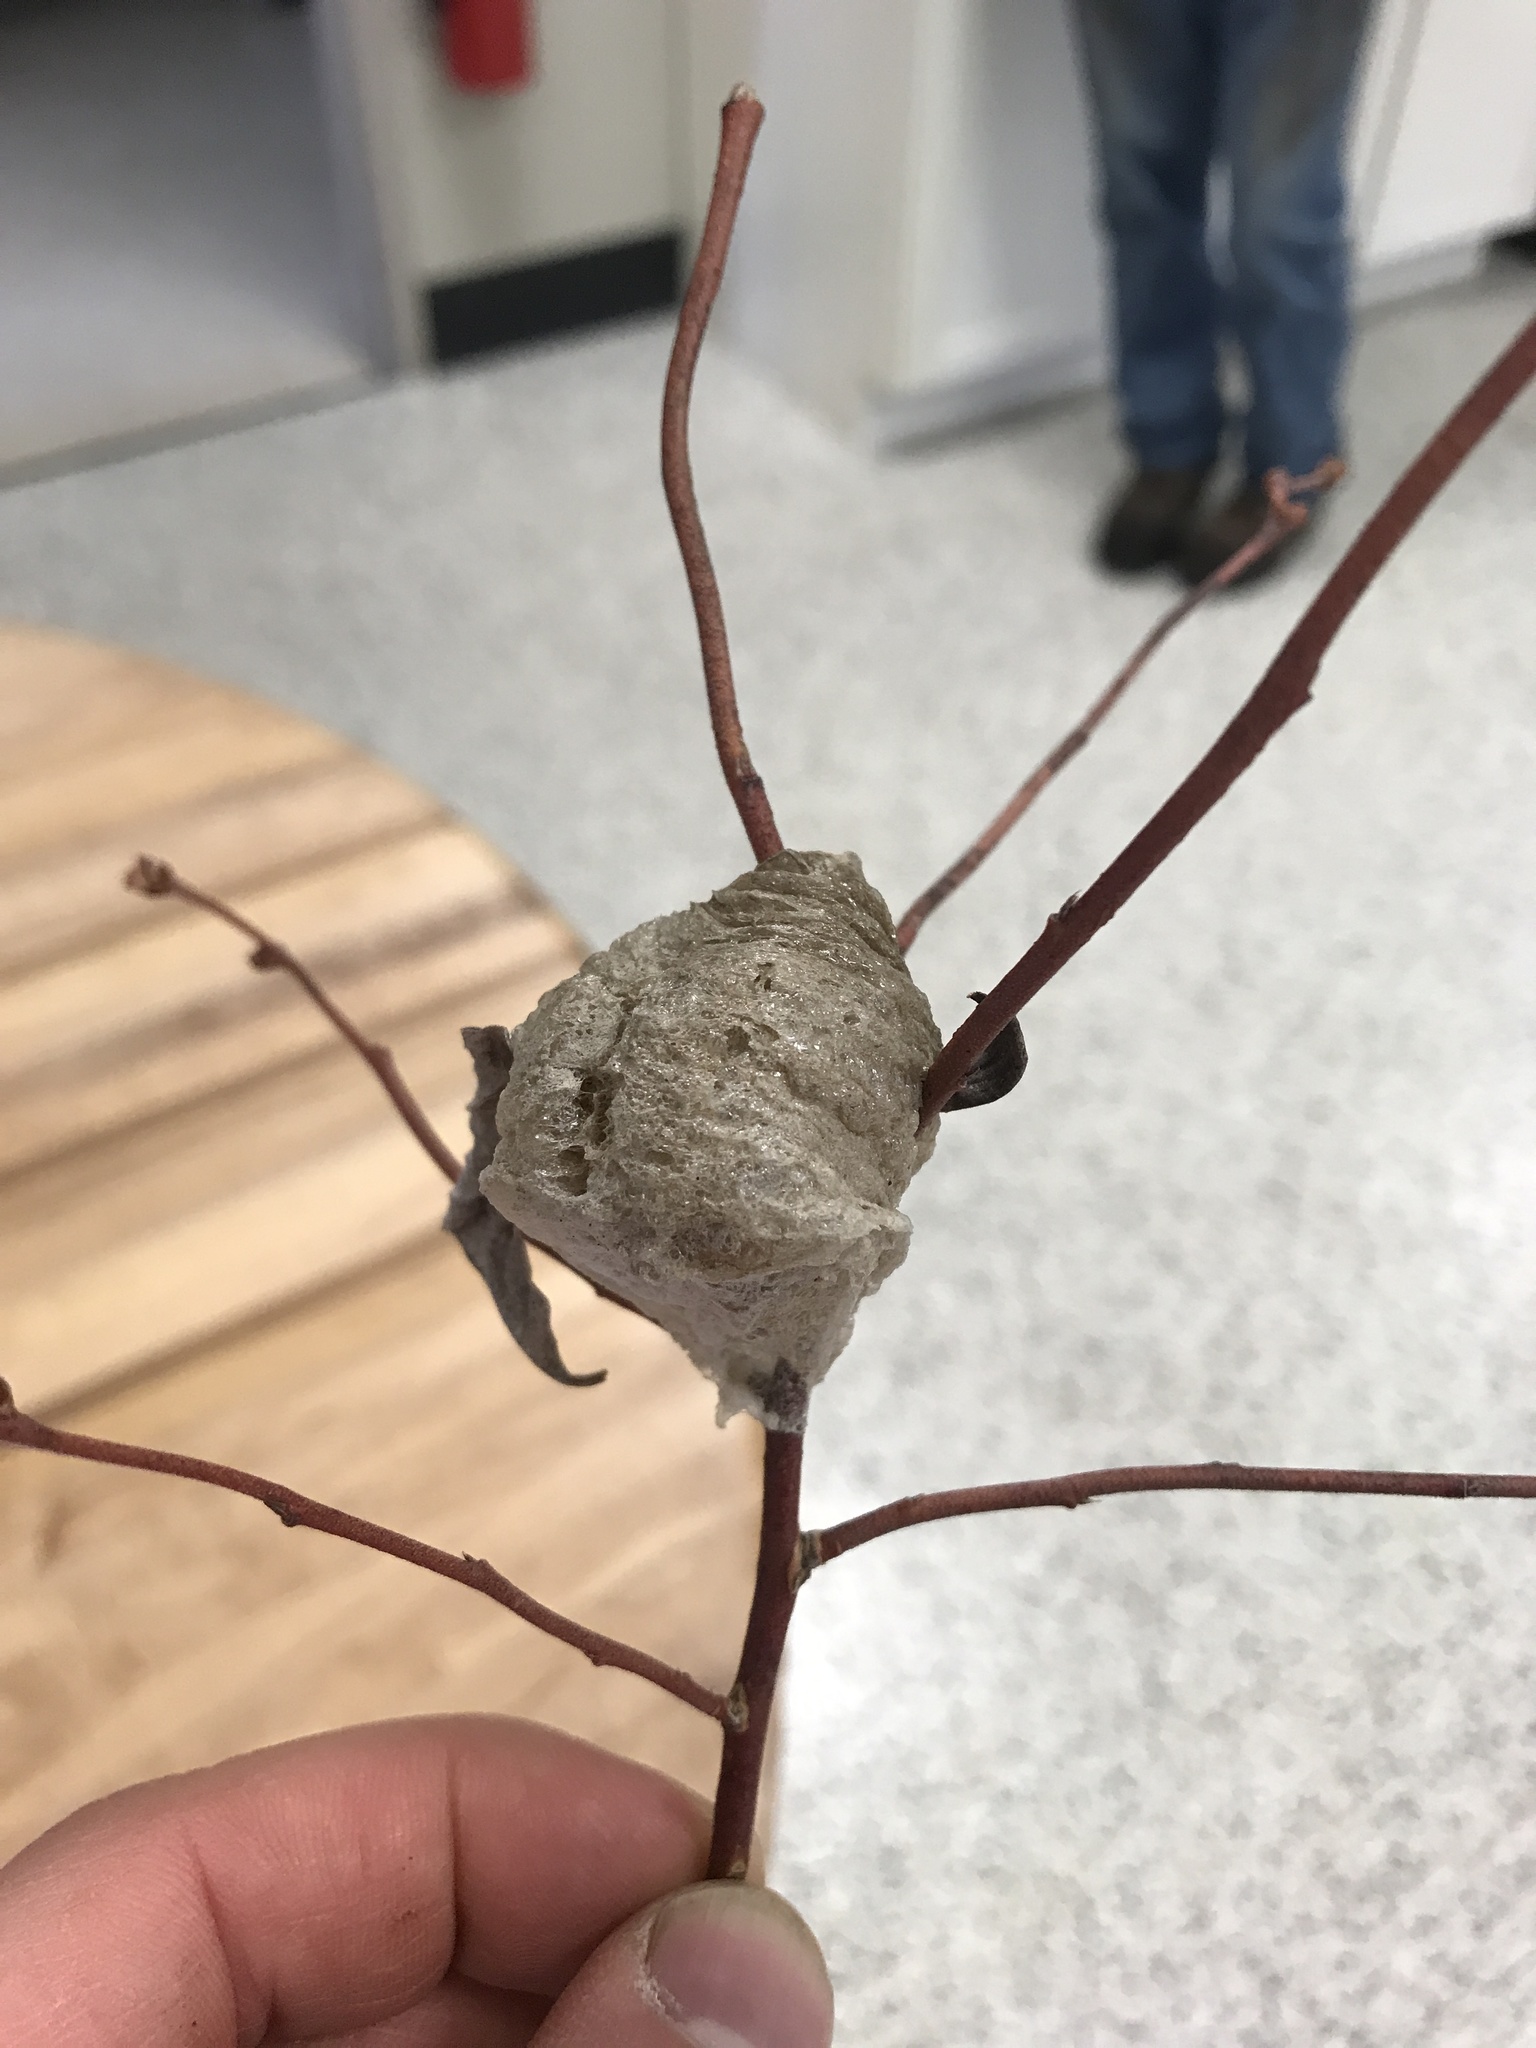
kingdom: Animalia
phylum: Arthropoda
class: Insecta
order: Mantodea
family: Mantidae
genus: Tenodera
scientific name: Tenodera sinensis
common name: Chinese mantis
